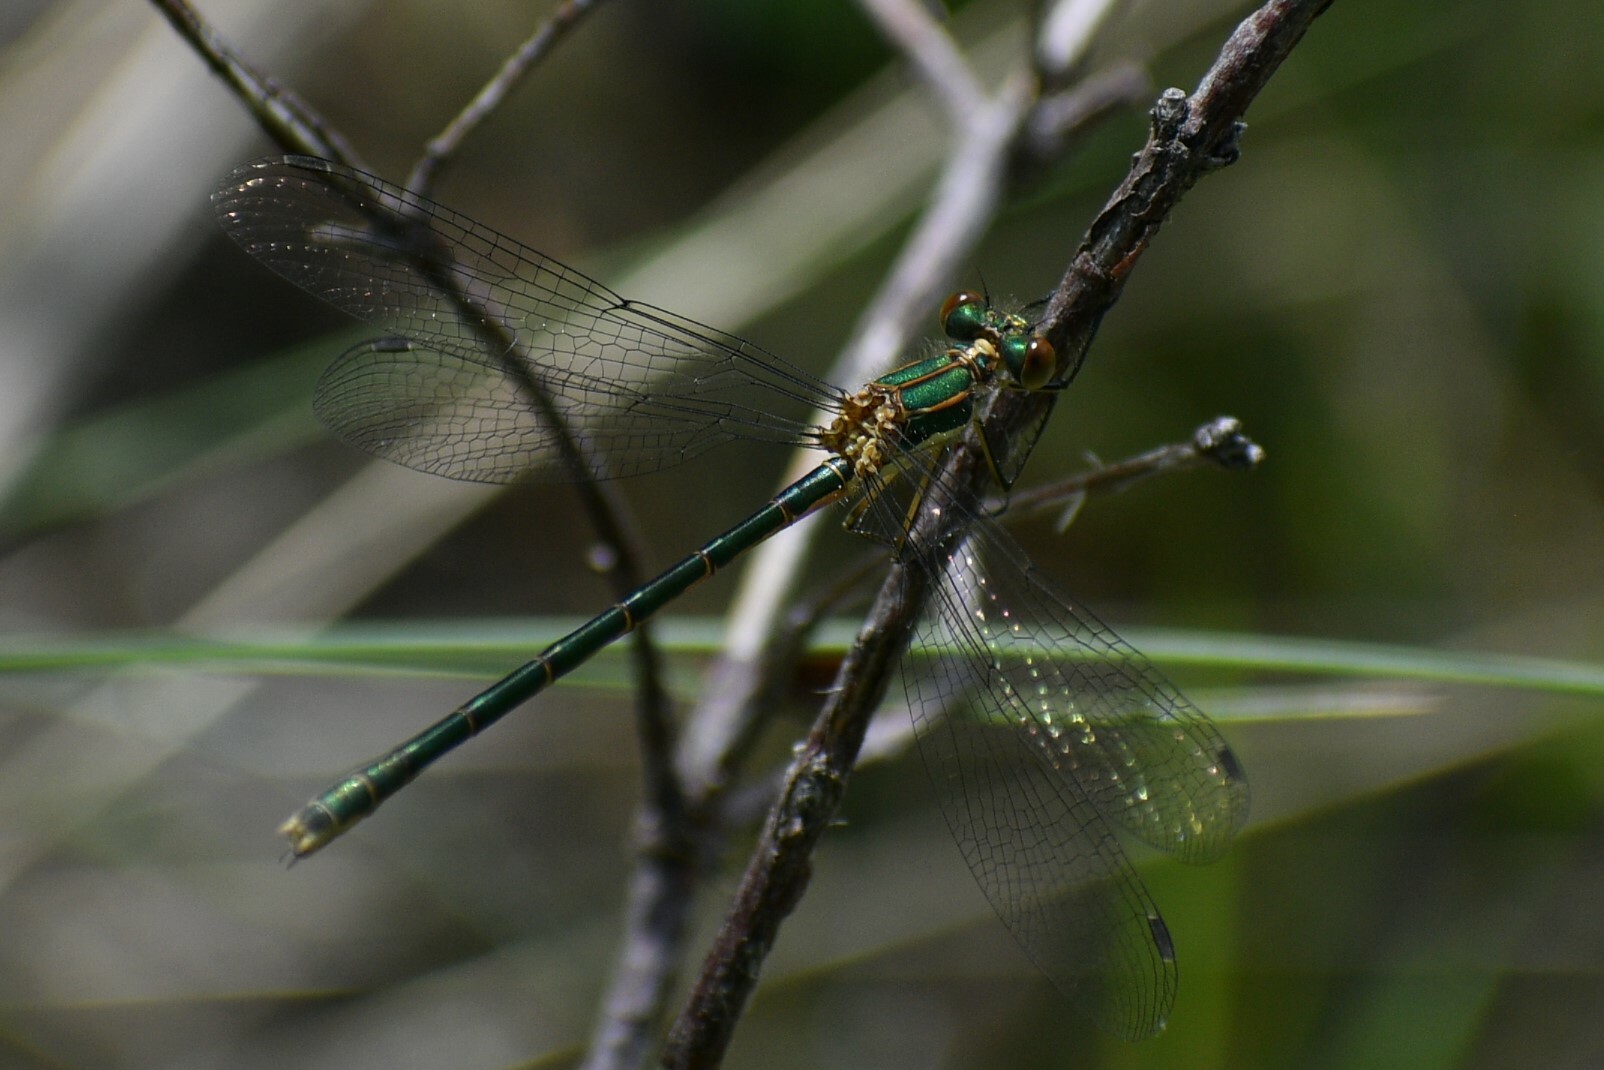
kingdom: Animalia
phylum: Arthropoda
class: Insecta
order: Odonata
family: Lestidae
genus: Lestes
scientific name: Lestes dryas
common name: Scarce emerald damselfly
